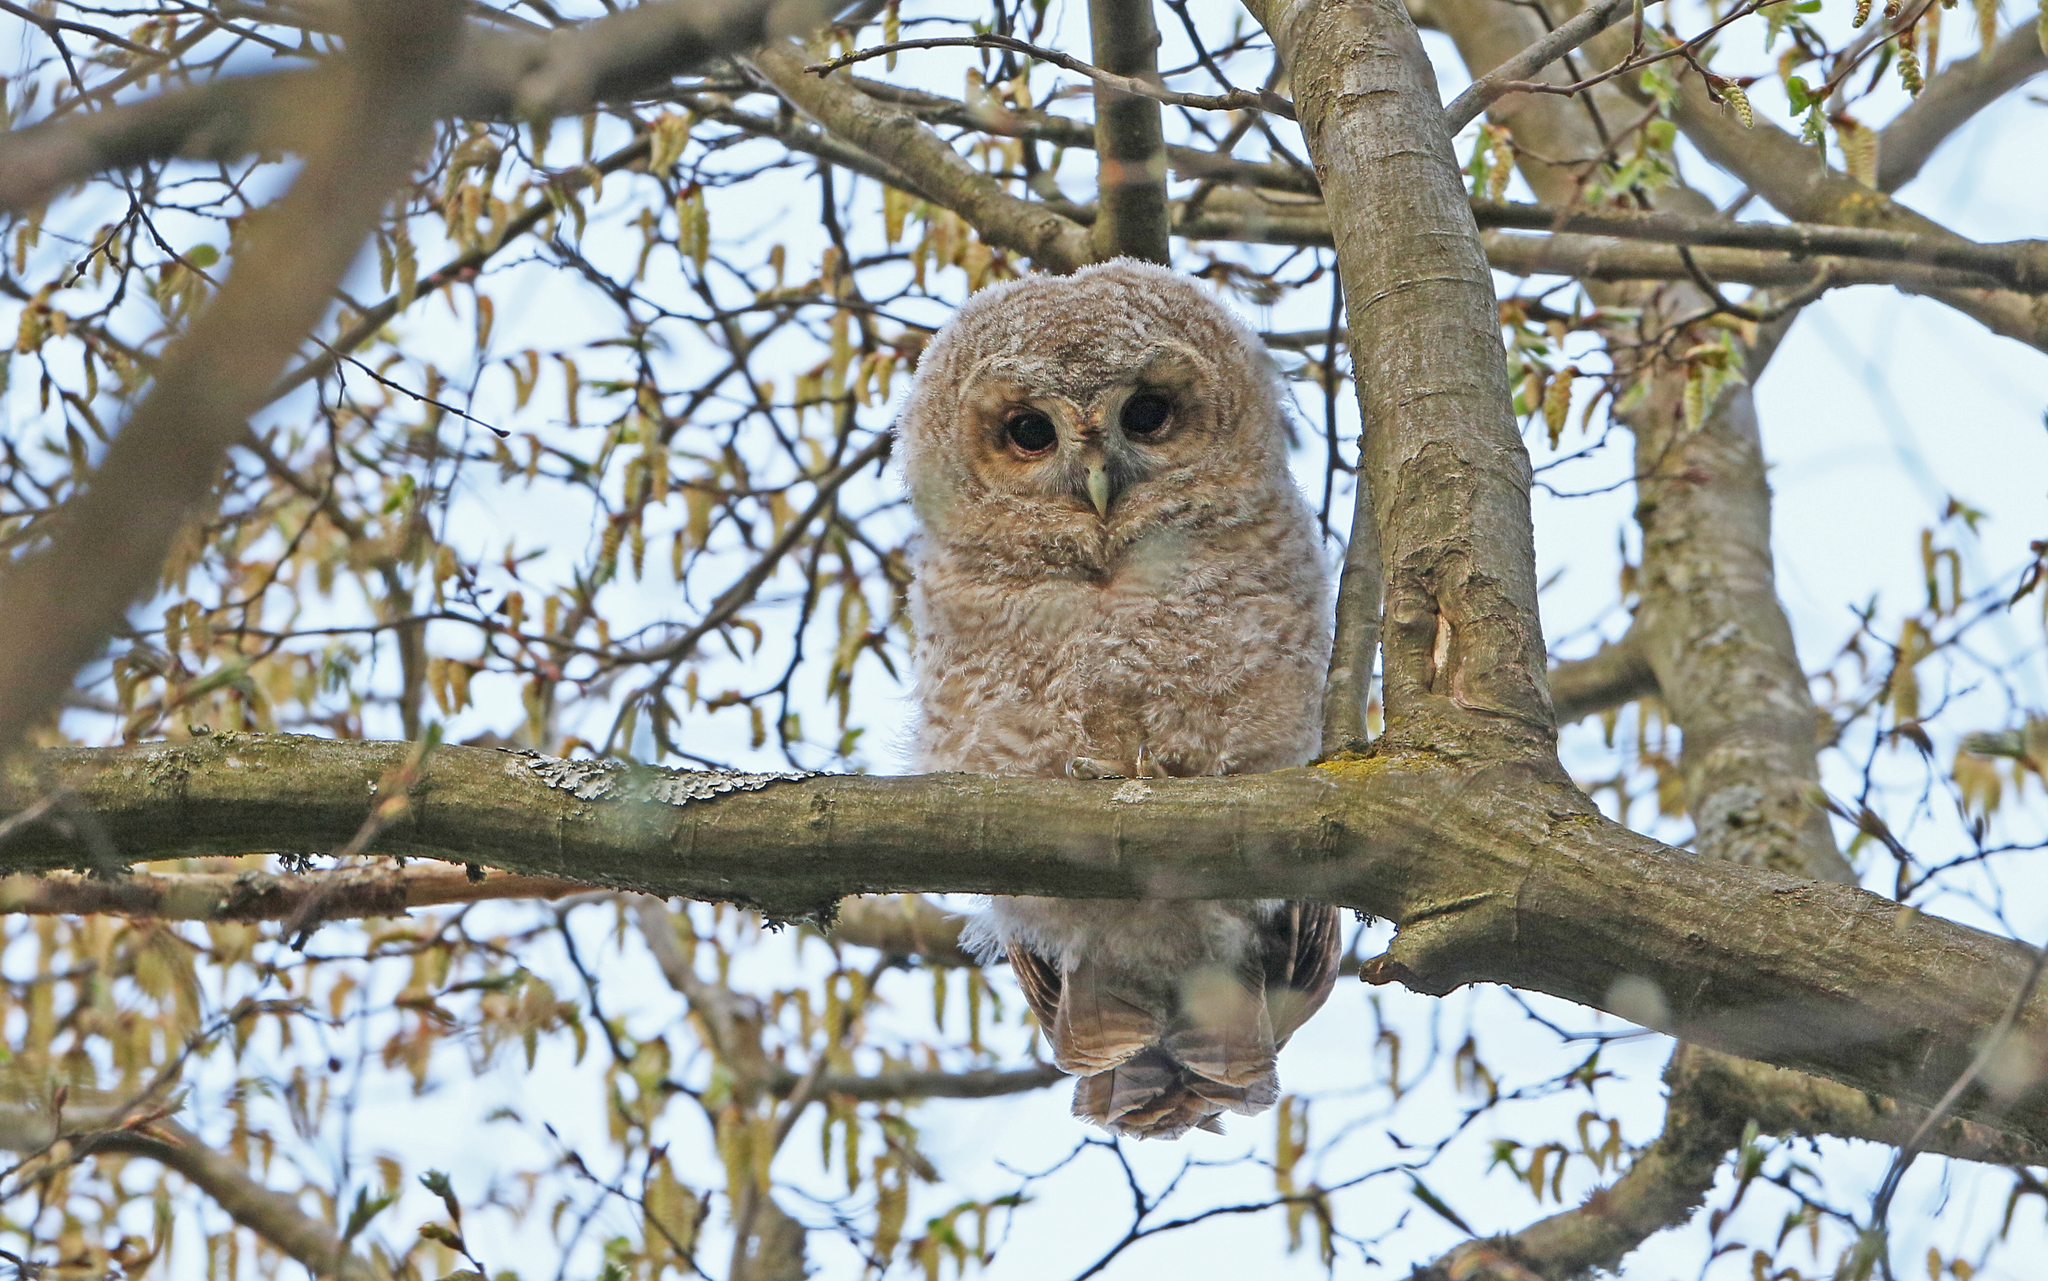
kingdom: Animalia
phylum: Chordata
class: Aves
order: Strigiformes
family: Strigidae
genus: Strix
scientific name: Strix aluco
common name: Tawny owl
